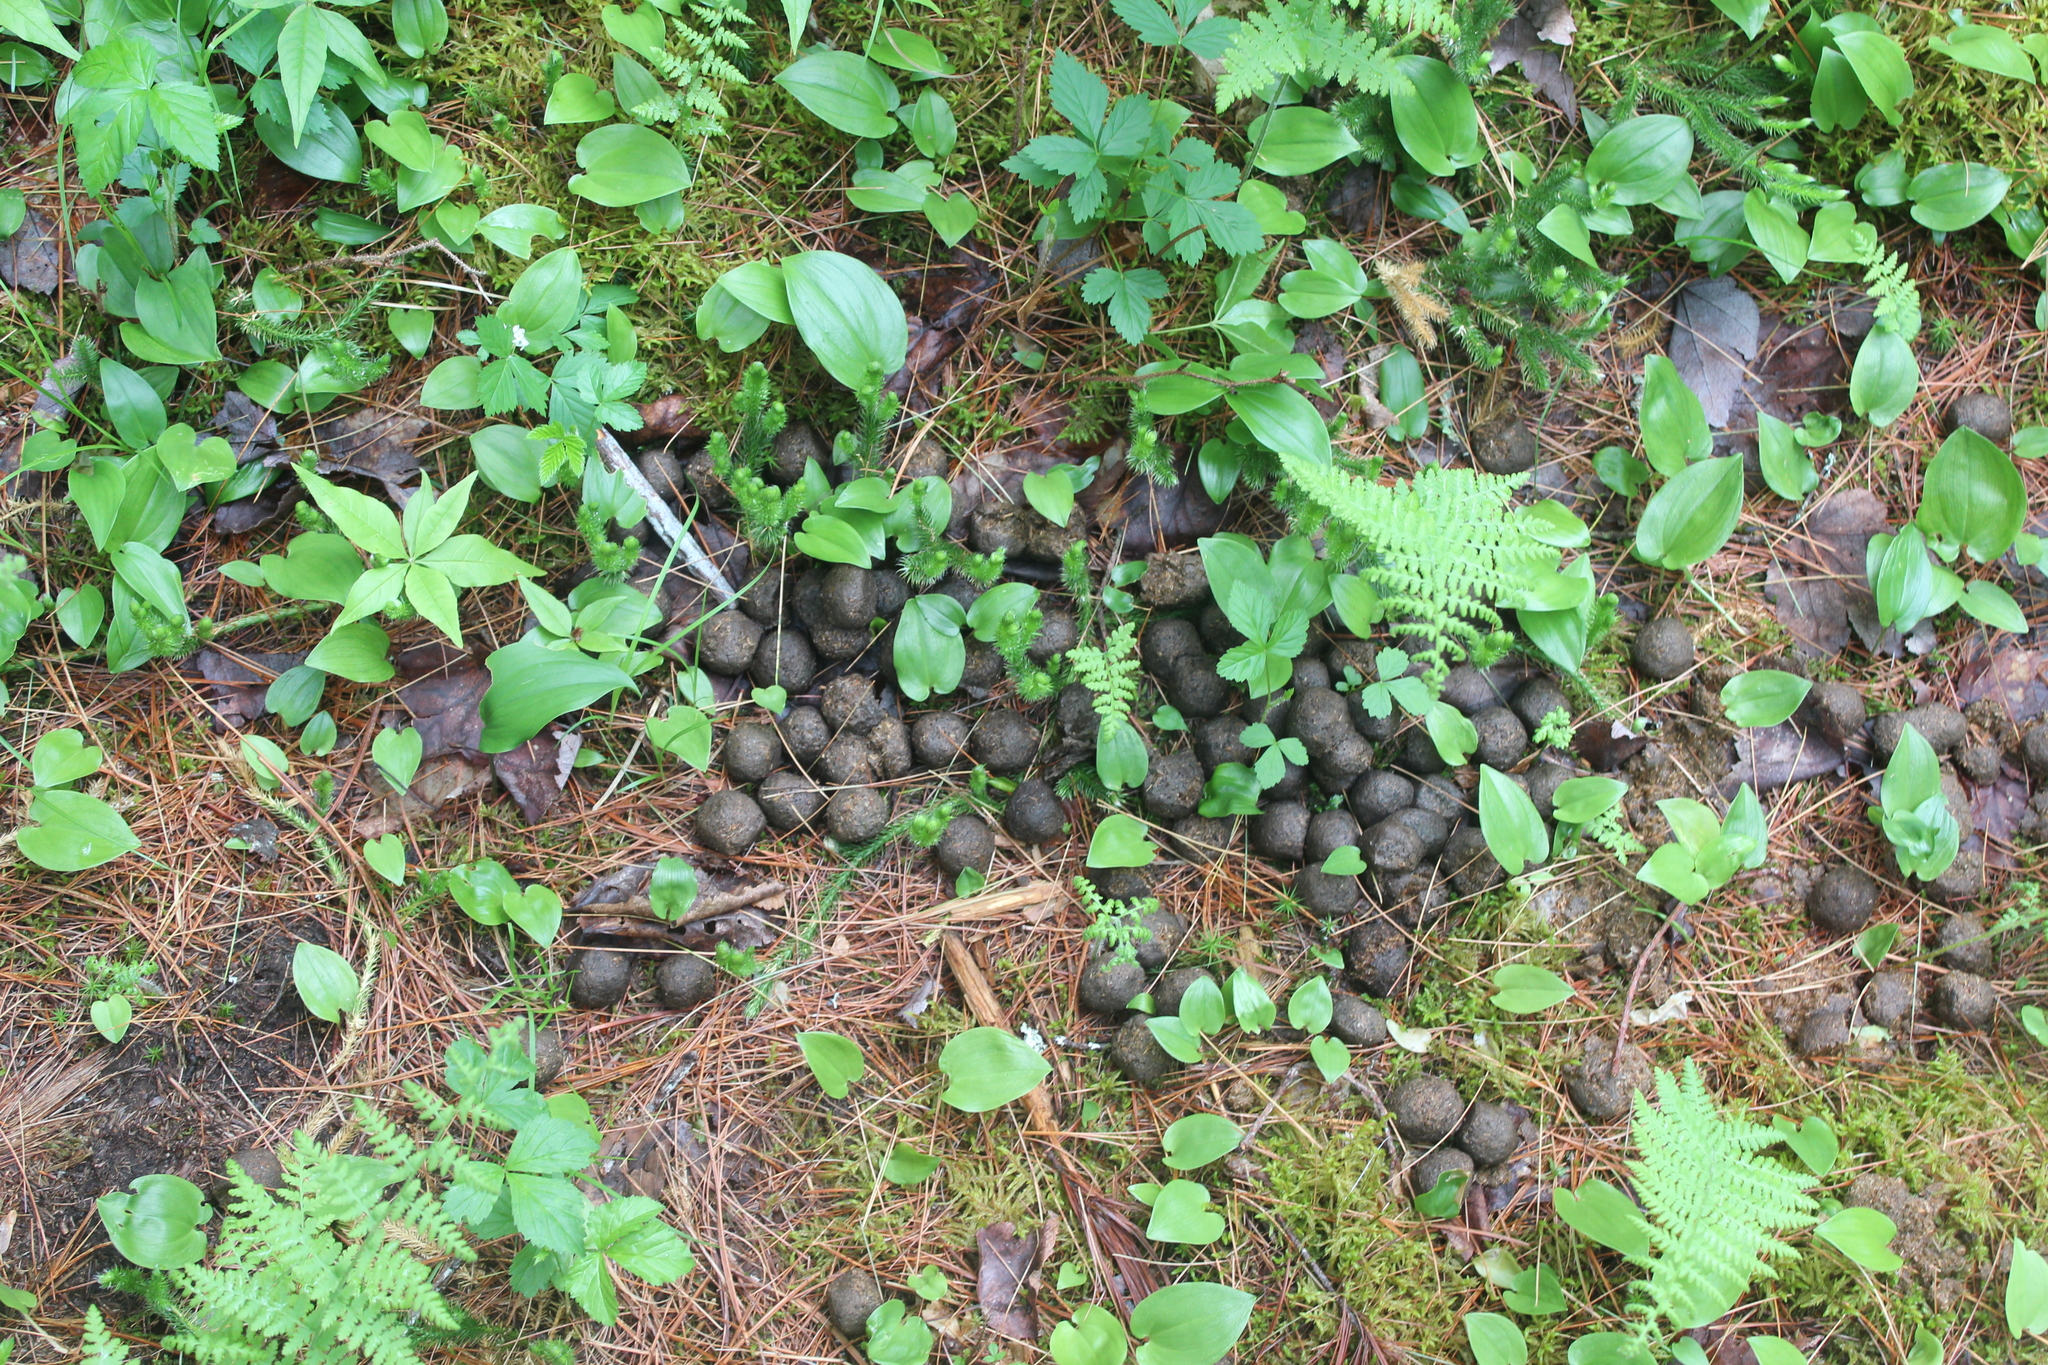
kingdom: Animalia
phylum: Chordata
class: Mammalia
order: Artiodactyla
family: Cervidae
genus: Alces
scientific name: Alces alces
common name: Moose
